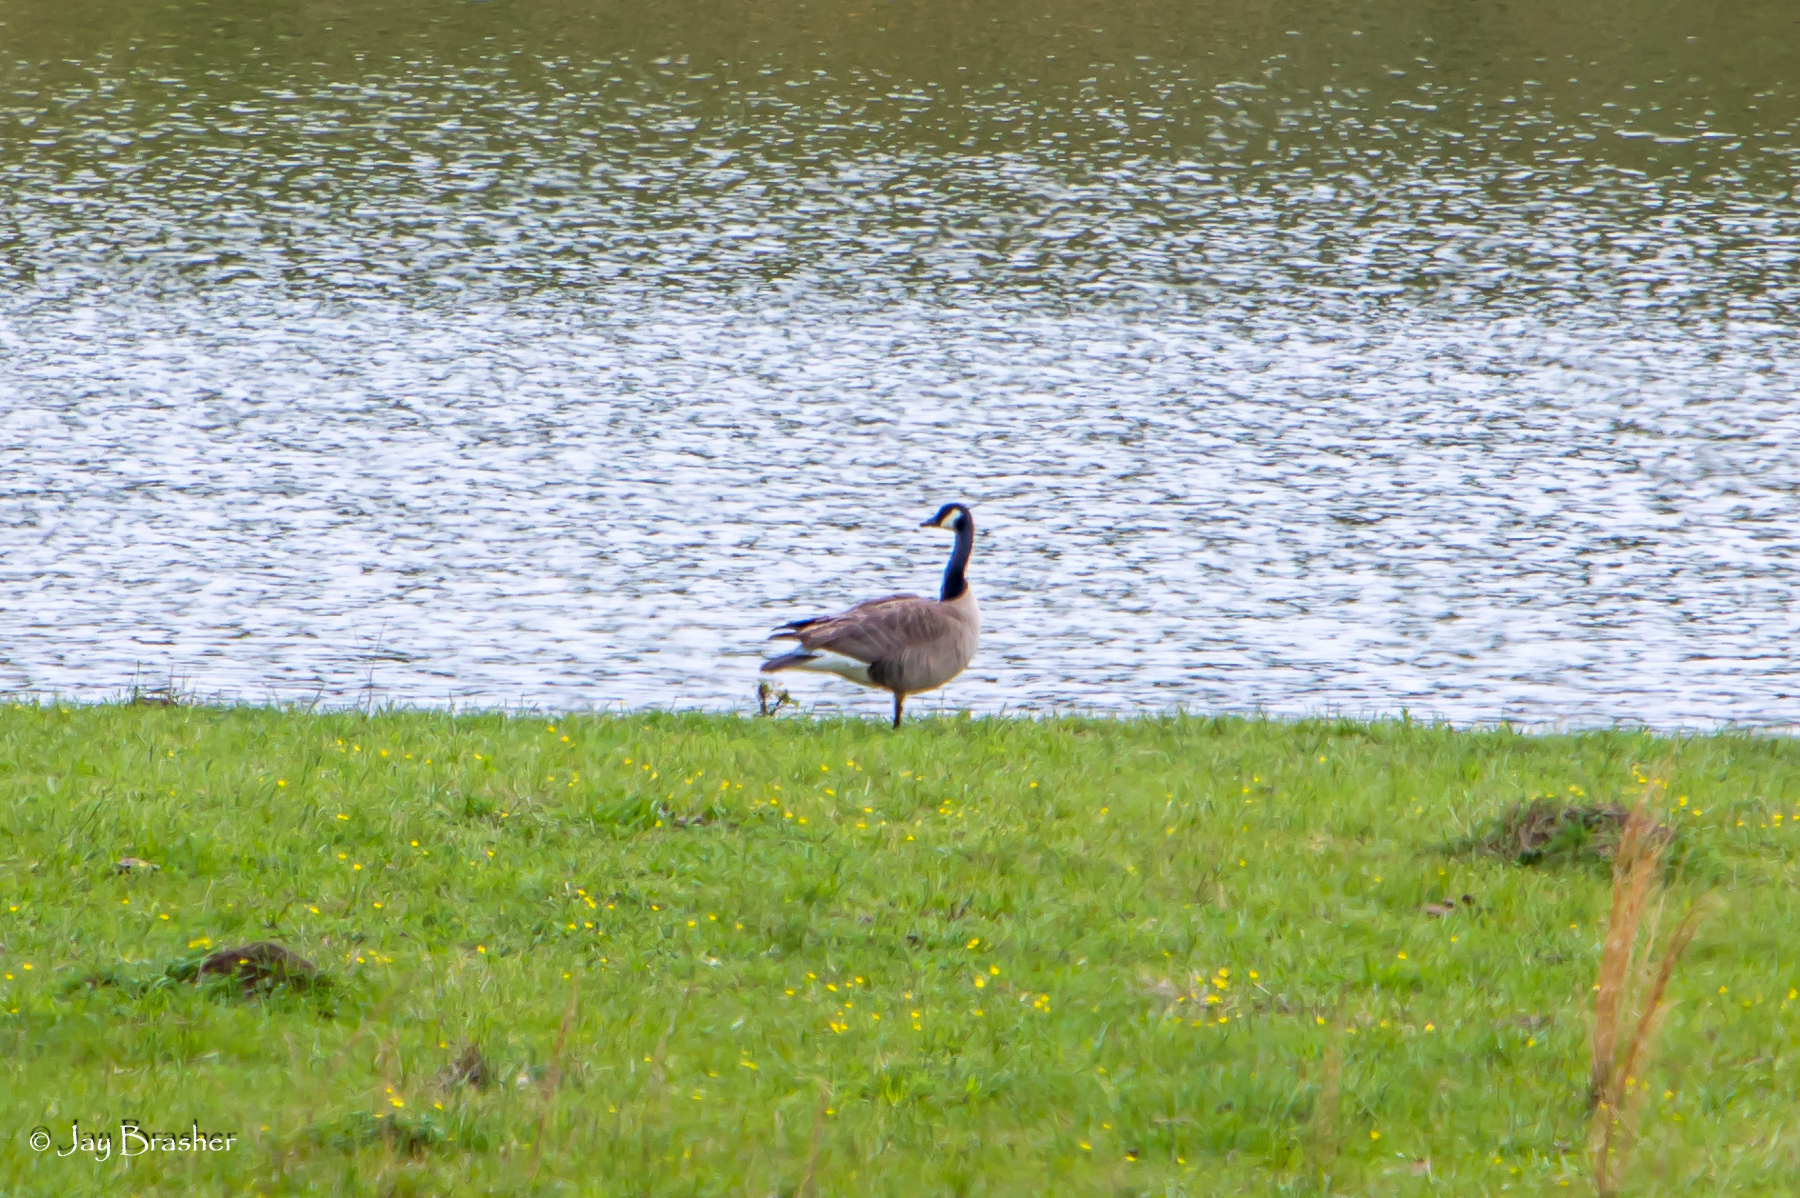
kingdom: Animalia
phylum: Chordata
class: Aves
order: Anseriformes
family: Anatidae
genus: Branta
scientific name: Branta canadensis
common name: Canada goose
